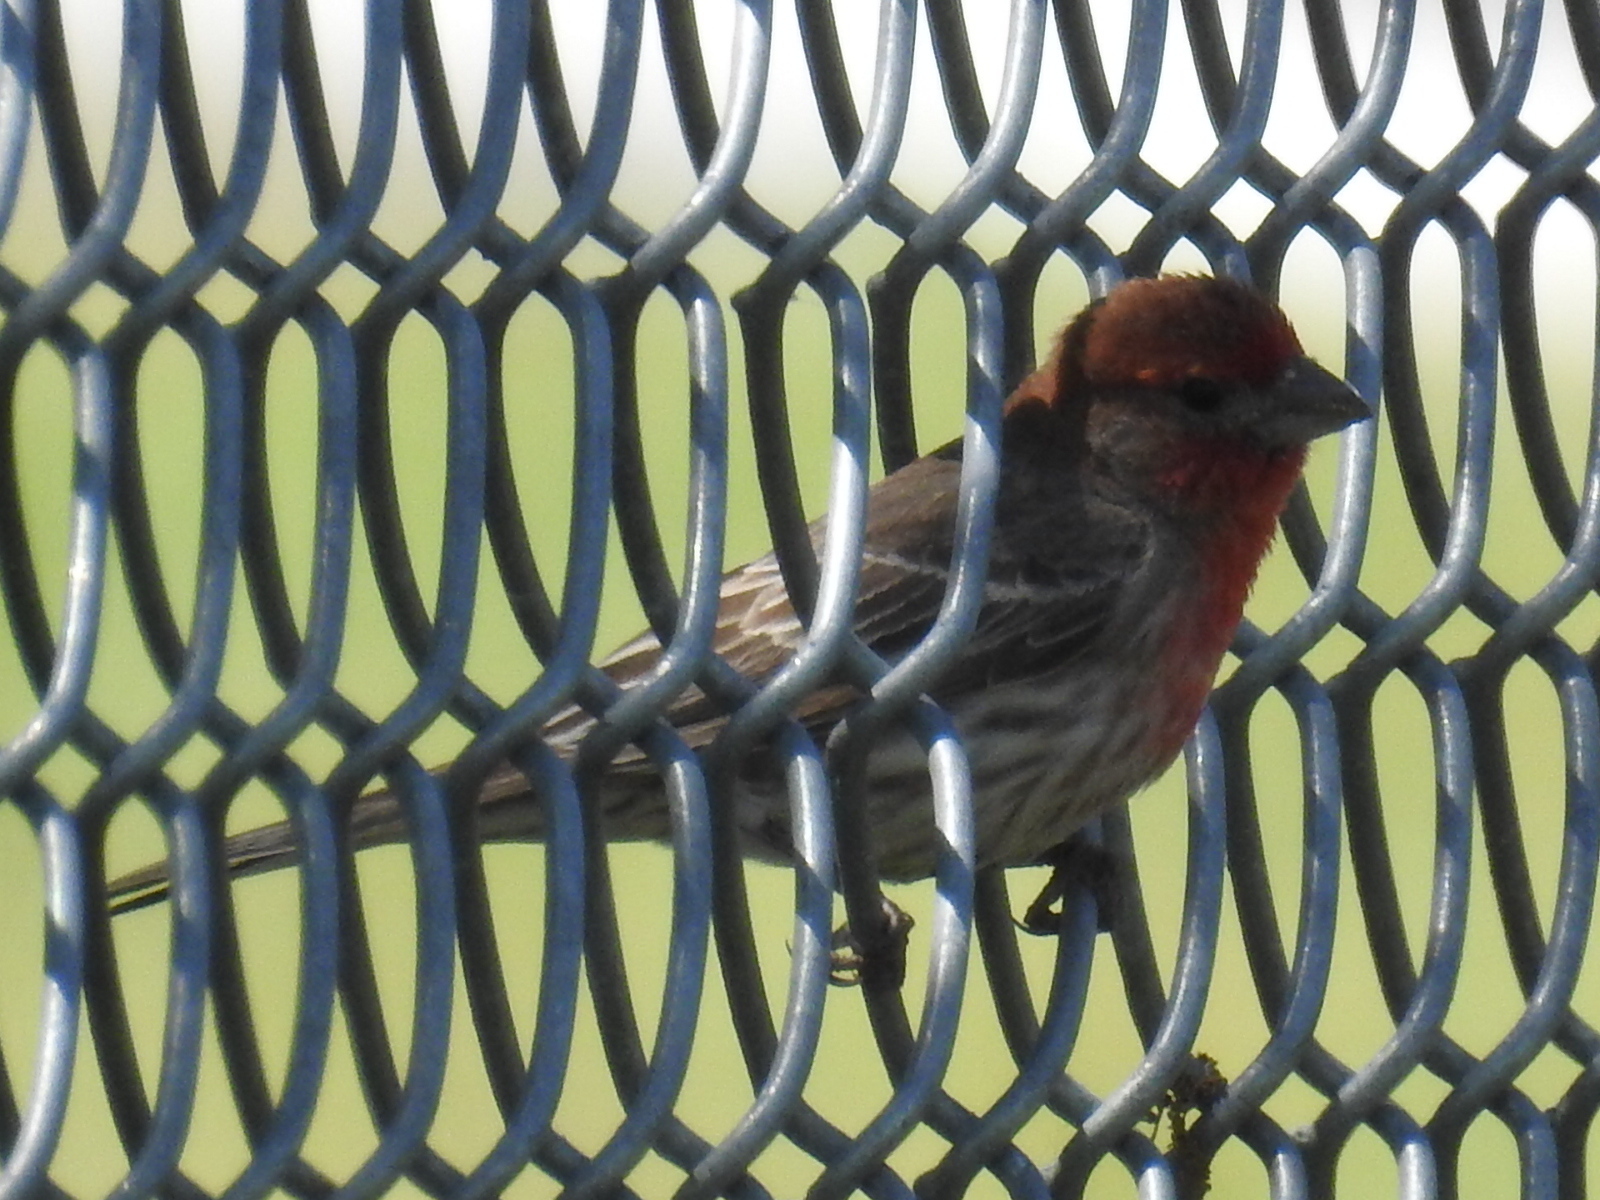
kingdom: Animalia
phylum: Chordata
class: Aves
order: Passeriformes
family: Fringillidae
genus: Haemorhous
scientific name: Haemorhous mexicanus
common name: House finch
